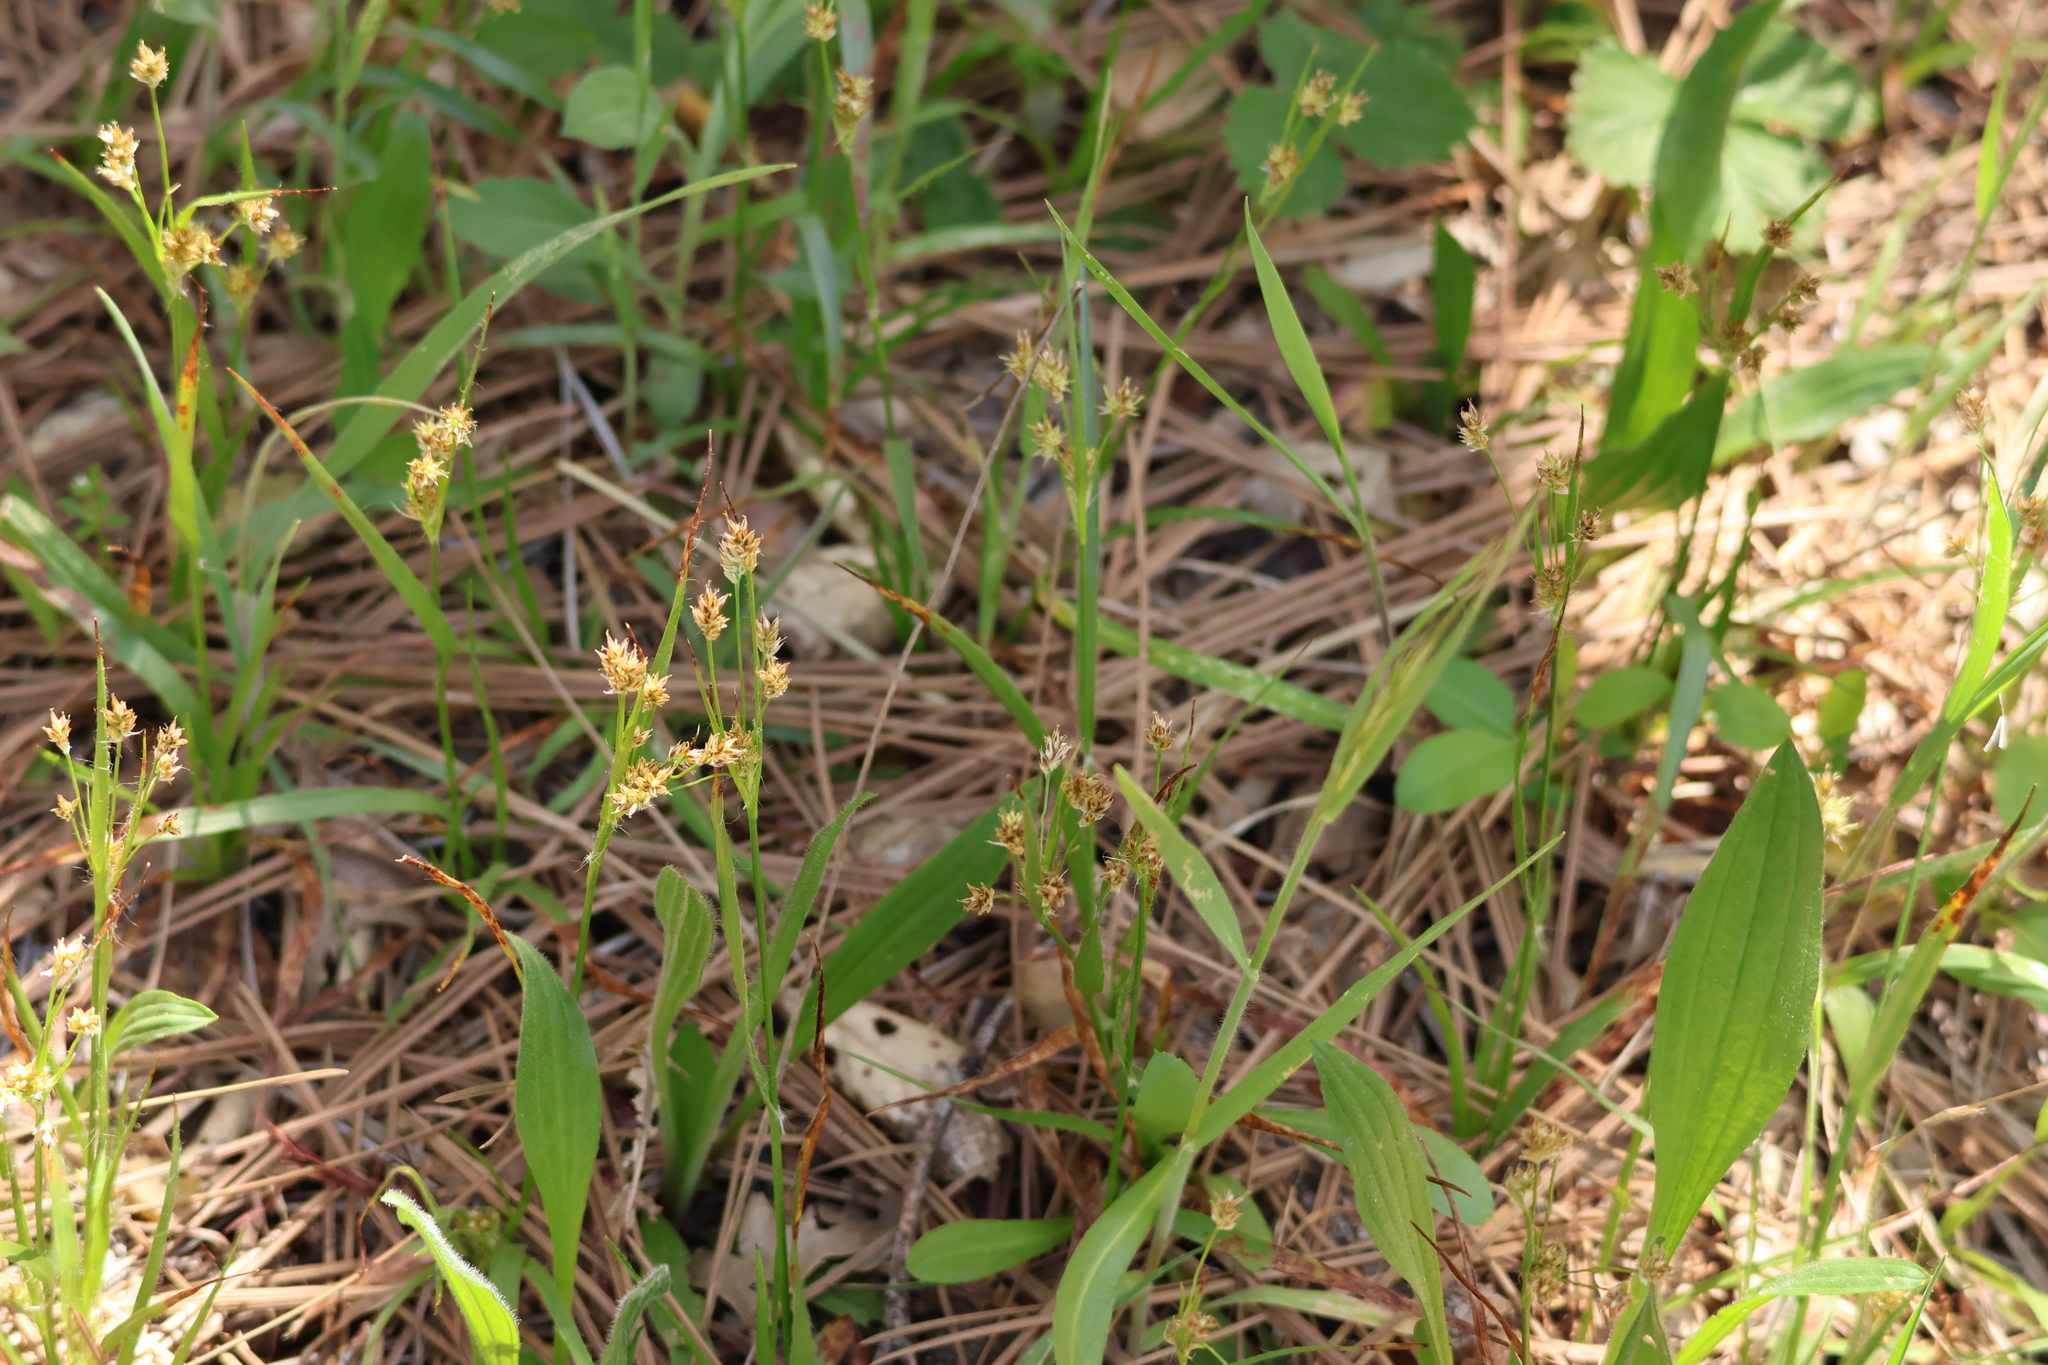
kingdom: Plantae
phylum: Tracheophyta
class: Liliopsida
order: Poales
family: Juncaceae
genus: Luzula
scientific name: Luzula comosa
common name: Pacific woodrush
